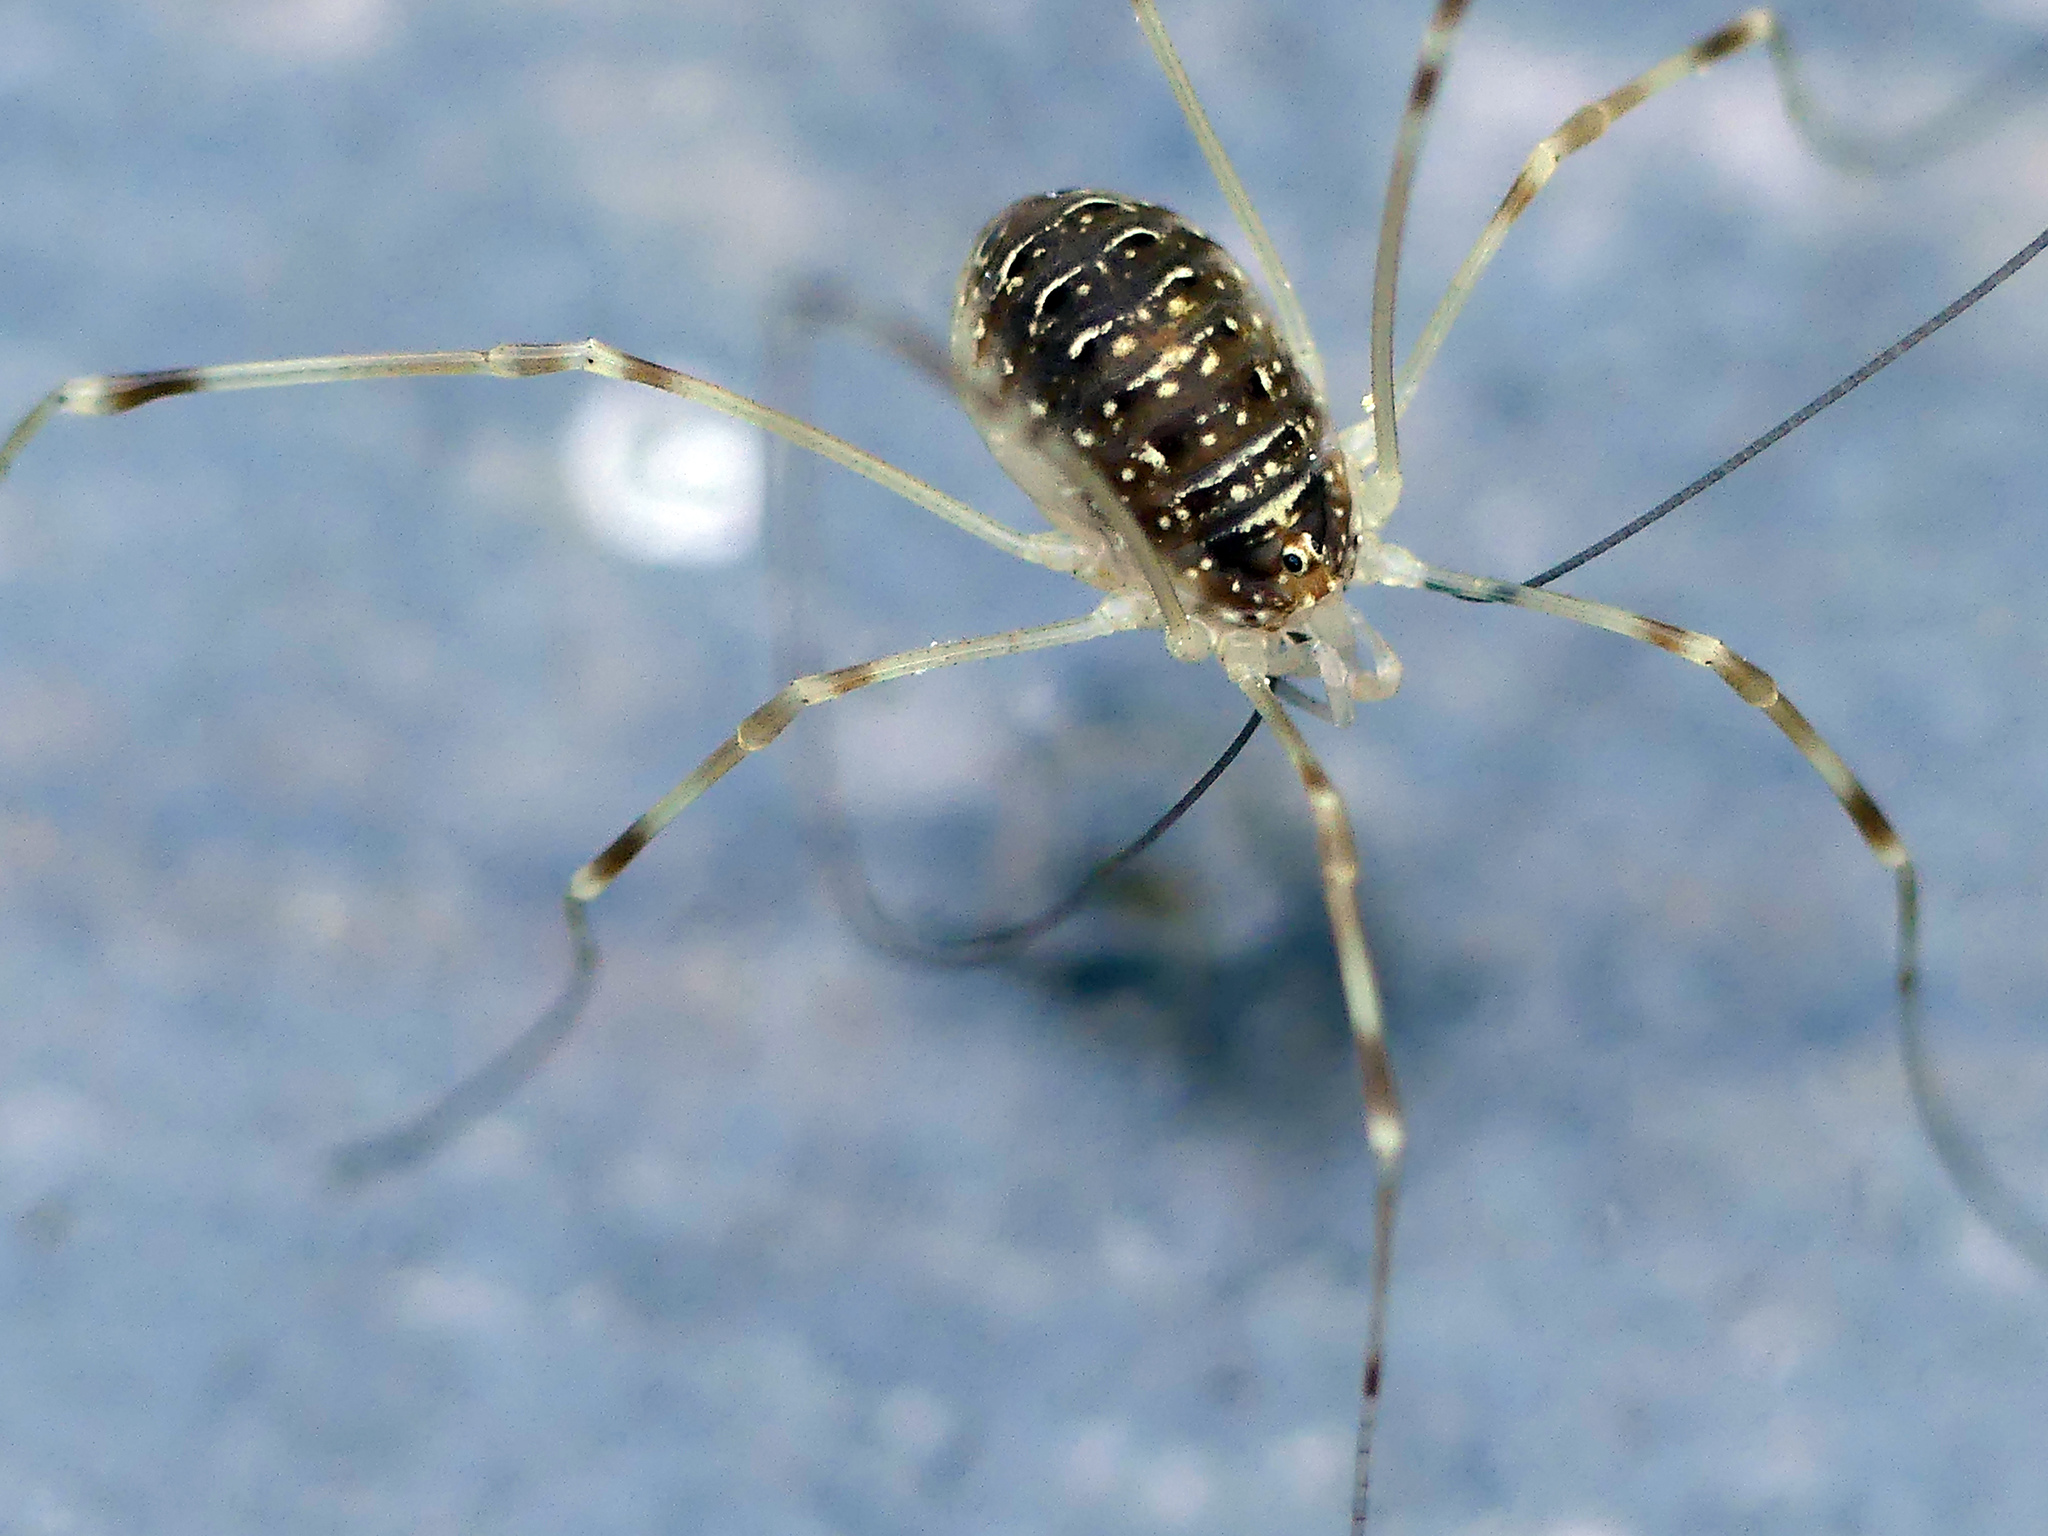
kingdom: Animalia
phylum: Arthropoda
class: Arachnida
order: Opiliones
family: Phalangiidae
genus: Opilio
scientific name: Opilio canestrinii
